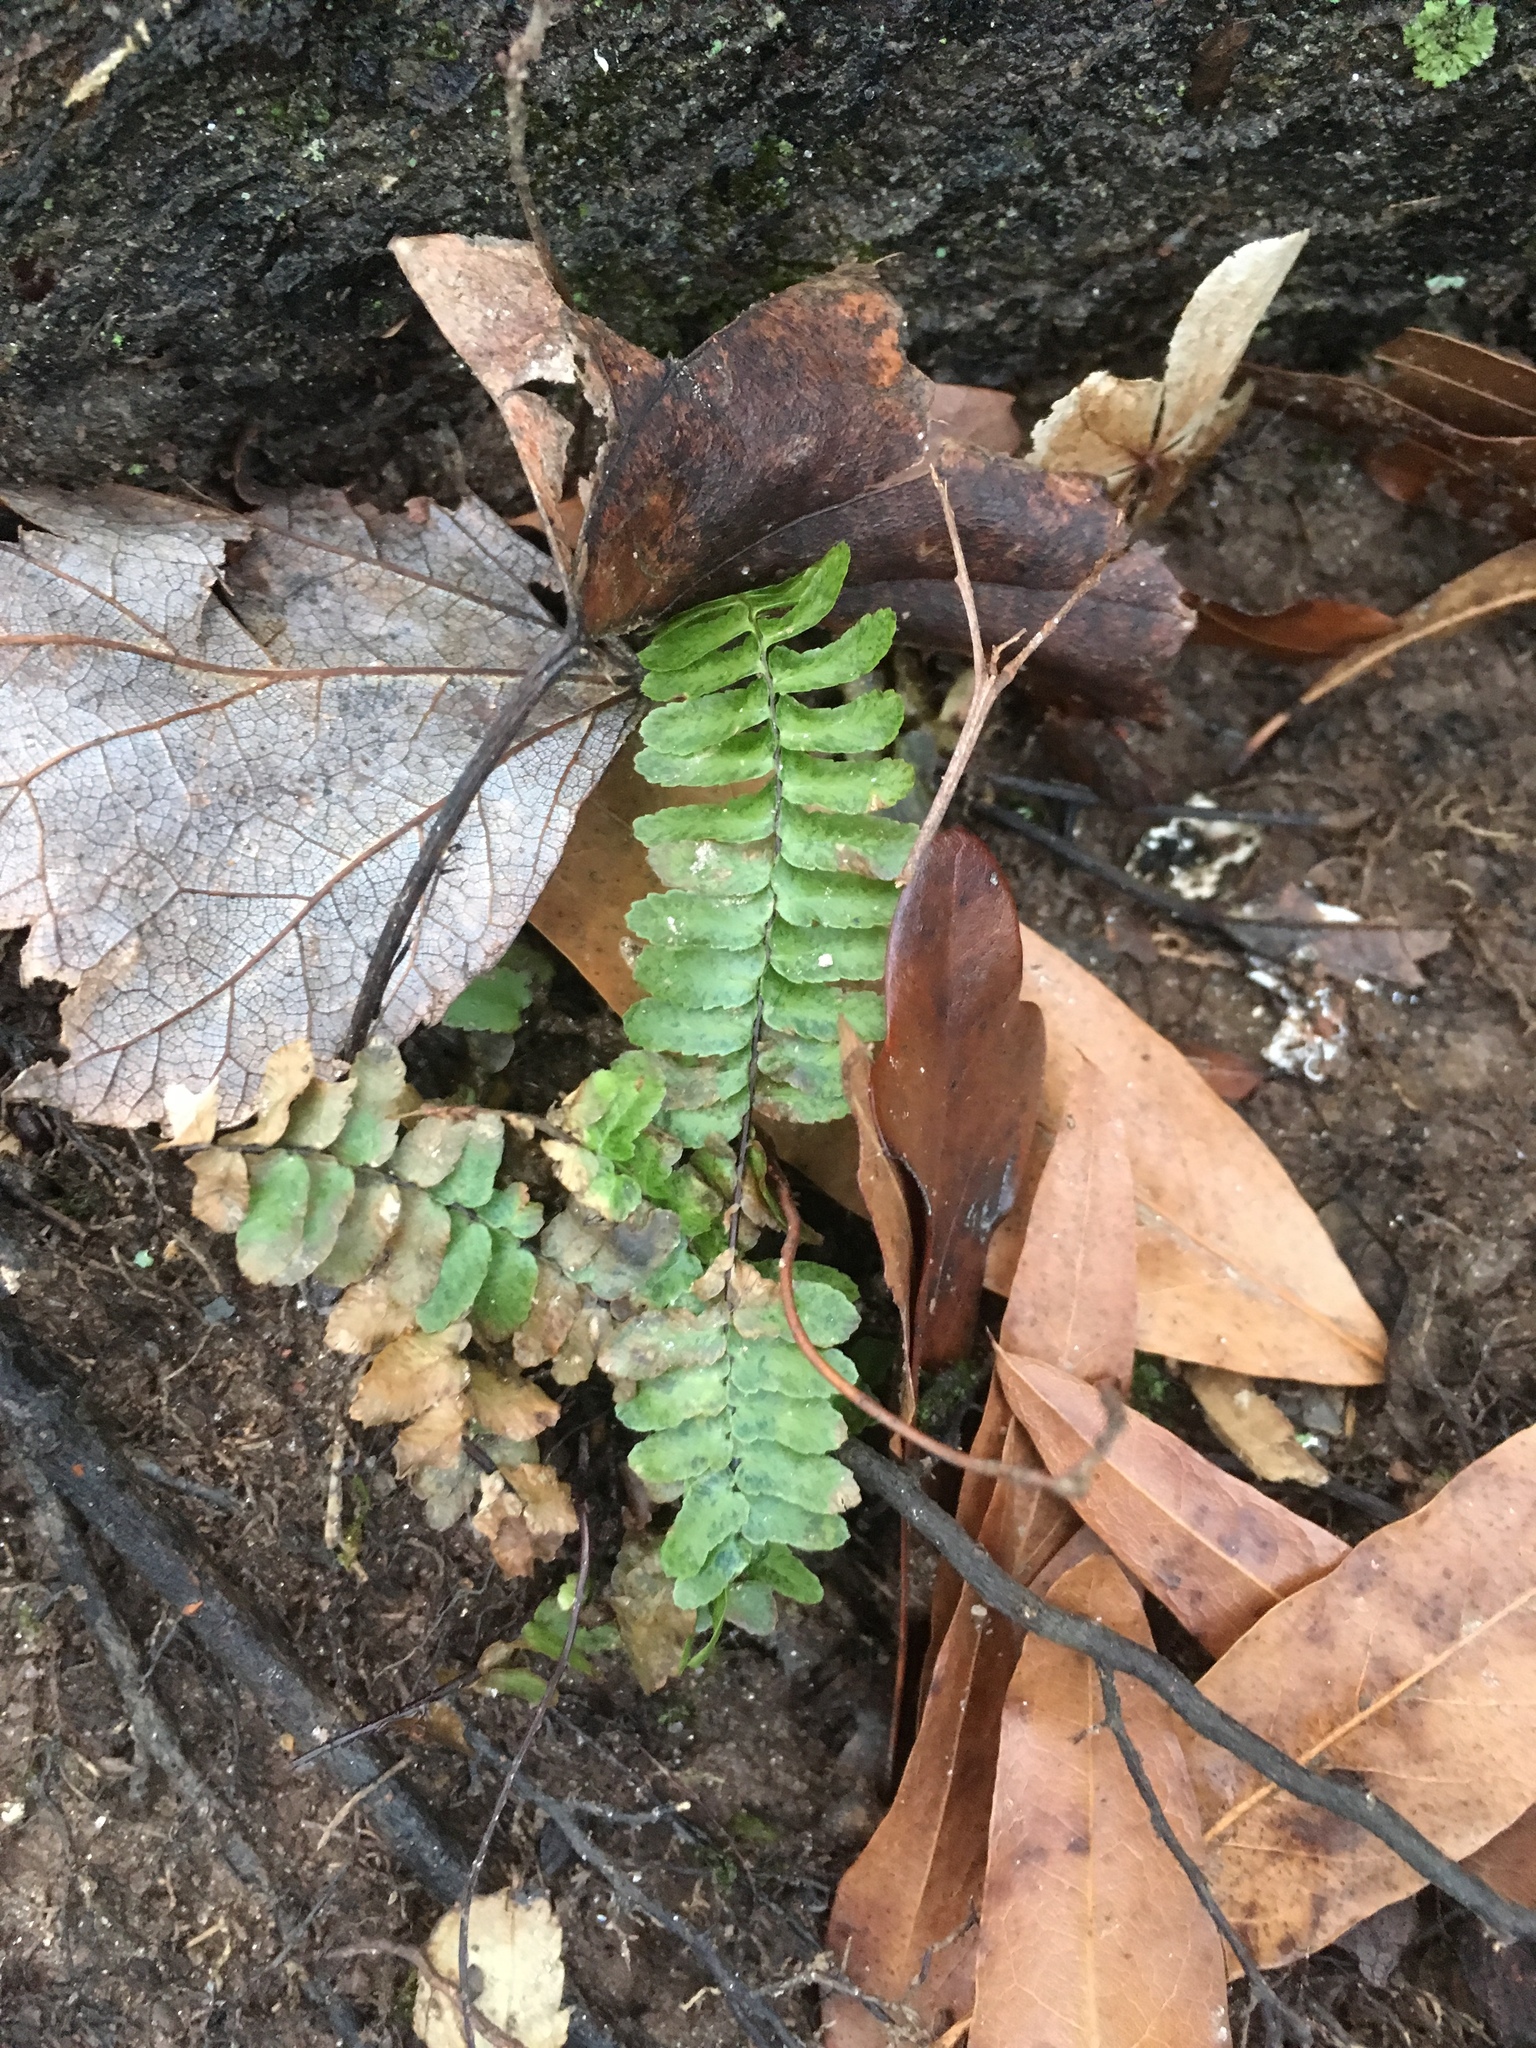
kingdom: Plantae
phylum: Tracheophyta
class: Polypodiopsida
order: Polypodiales
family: Aspleniaceae
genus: Asplenium
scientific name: Asplenium platyneuron
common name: Ebony spleenwort
